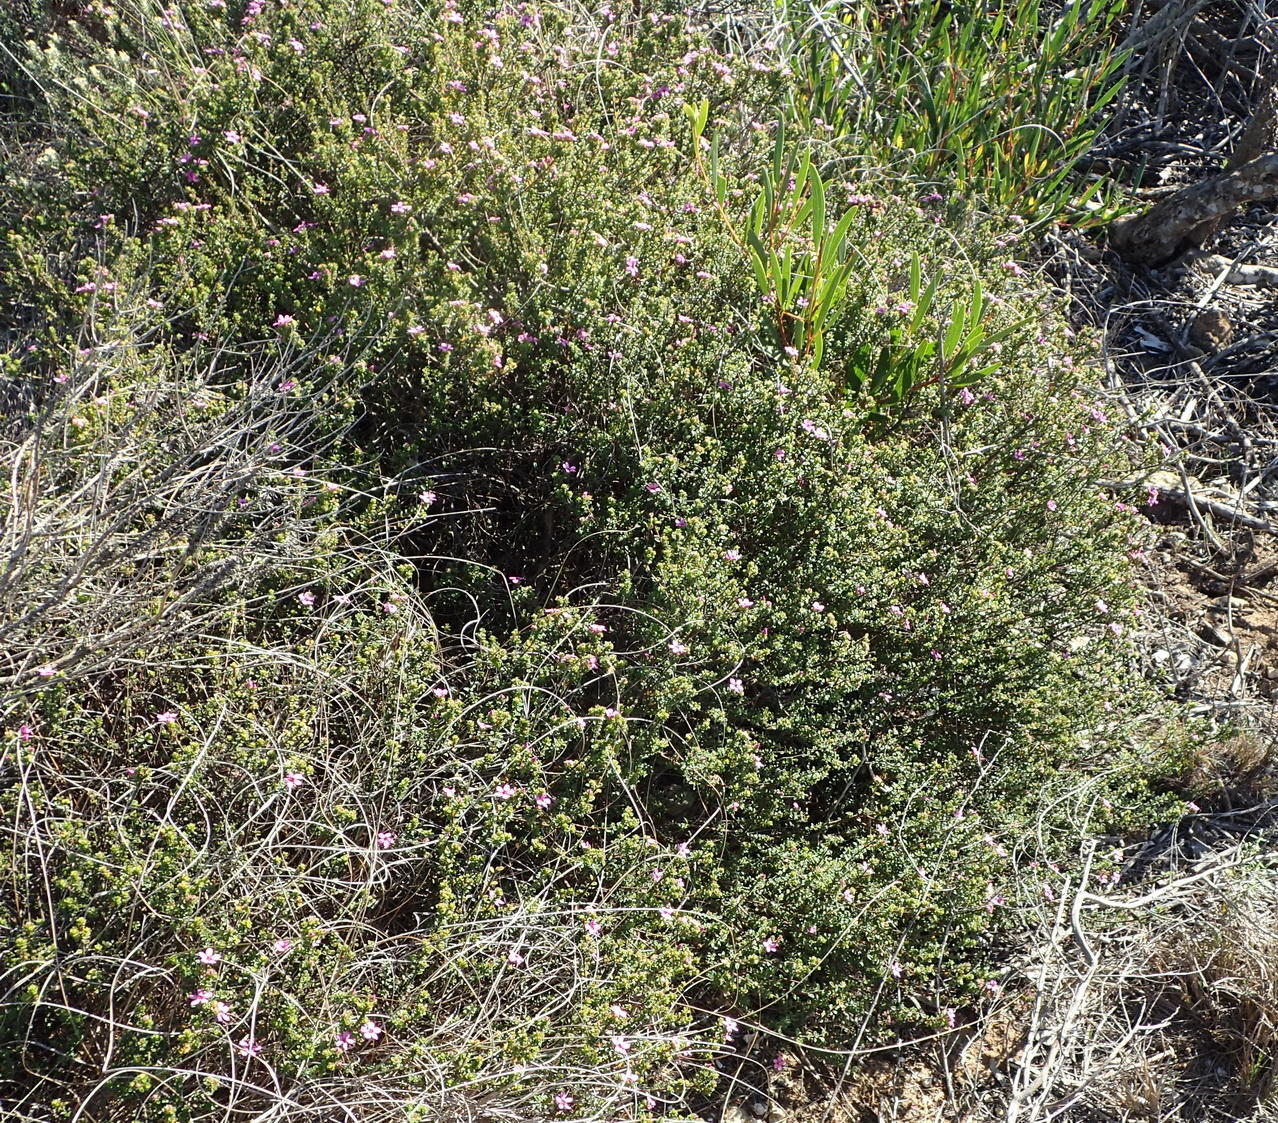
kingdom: Plantae
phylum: Tracheophyta
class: Magnoliopsida
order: Sapindales
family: Rutaceae
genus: Acmadenia
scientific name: Acmadenia heterophylla
